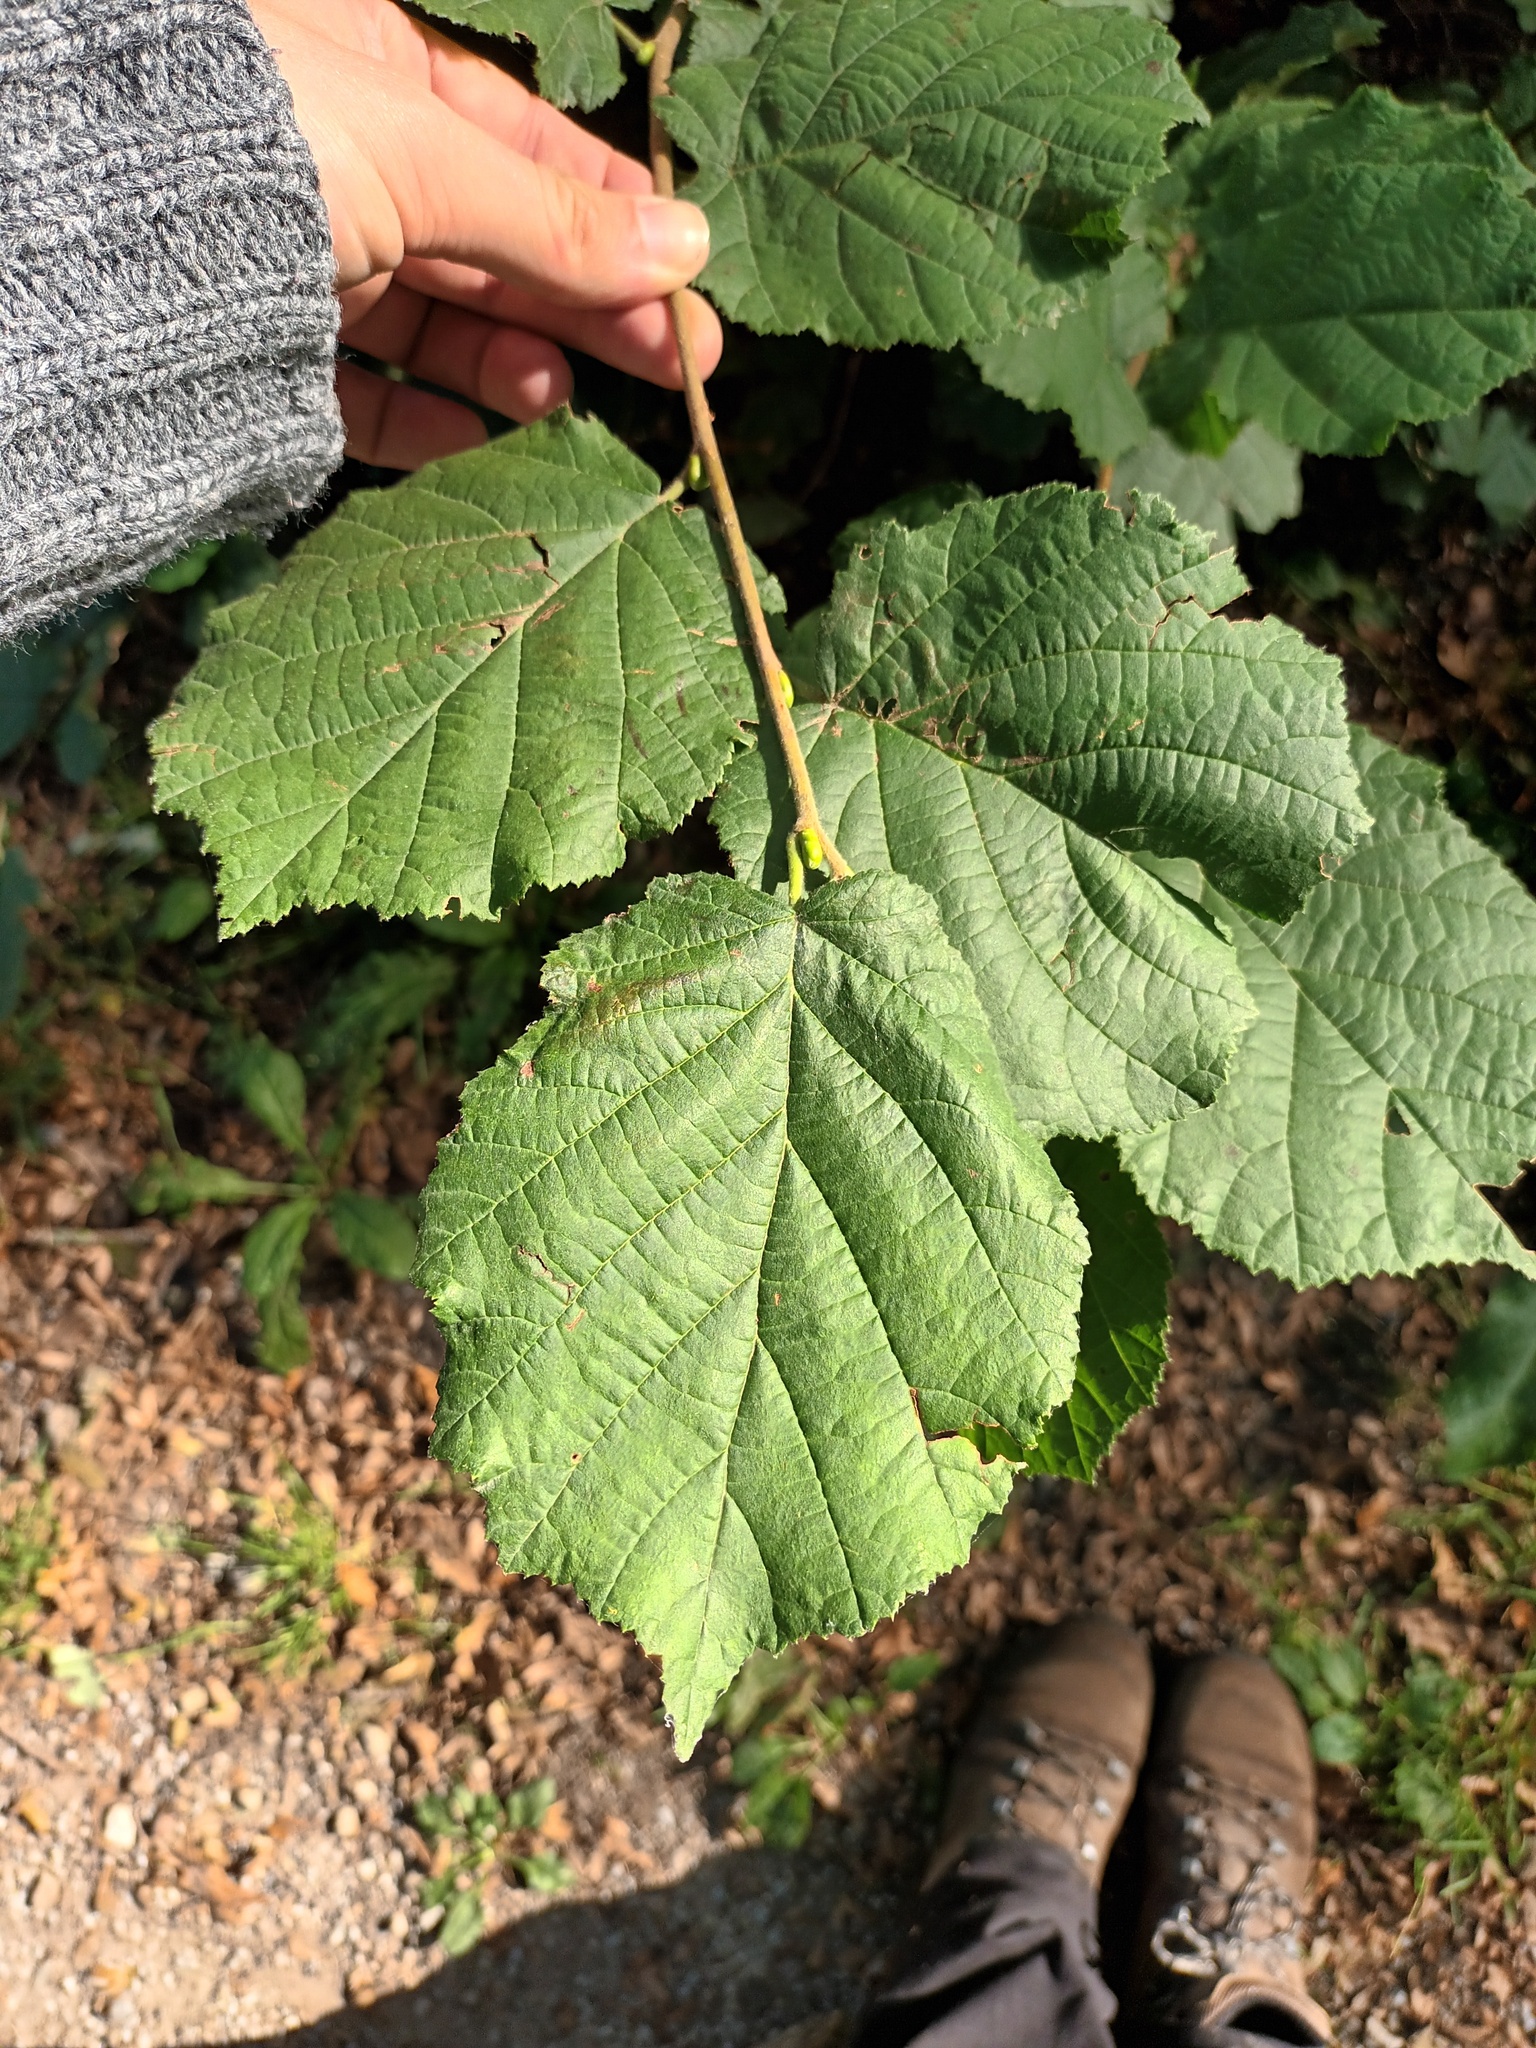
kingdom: Plantae
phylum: Tracheophyta
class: Magnoliopsida
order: Fagales
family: Betulaceae
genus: Corylus
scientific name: Corylus avellana
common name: European hazel
